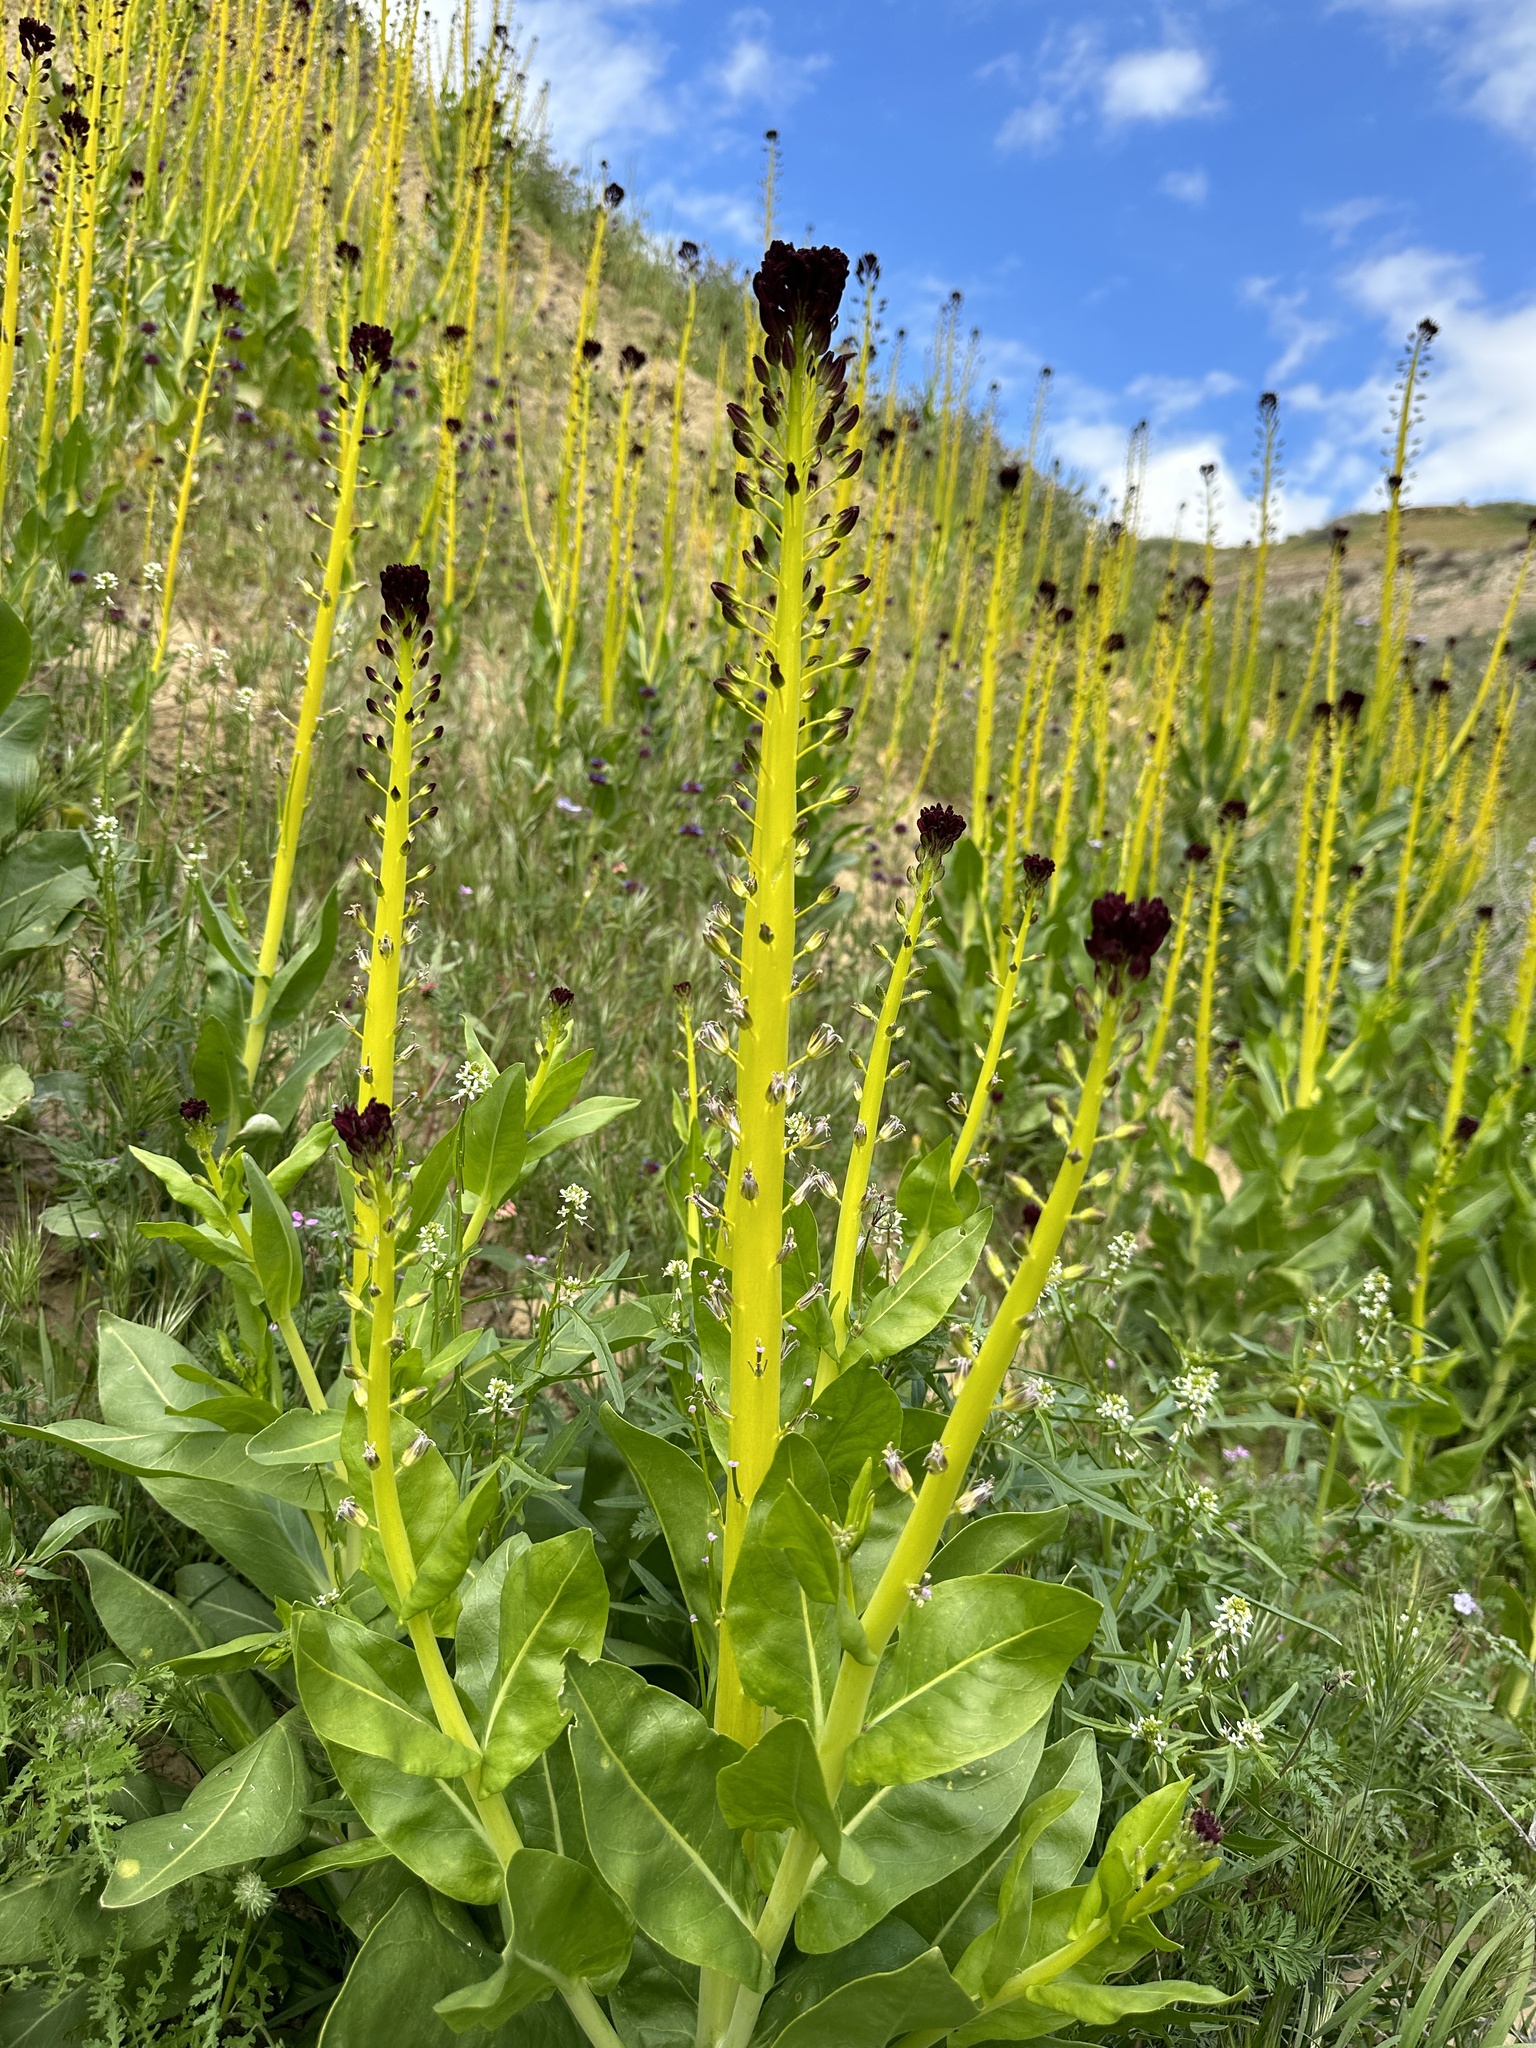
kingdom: Plantae
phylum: Tracheophyta
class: Magnoliopsida
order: Brassicales
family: Brassicaceae
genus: Streptanthus
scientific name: Streptanthus inflatus
